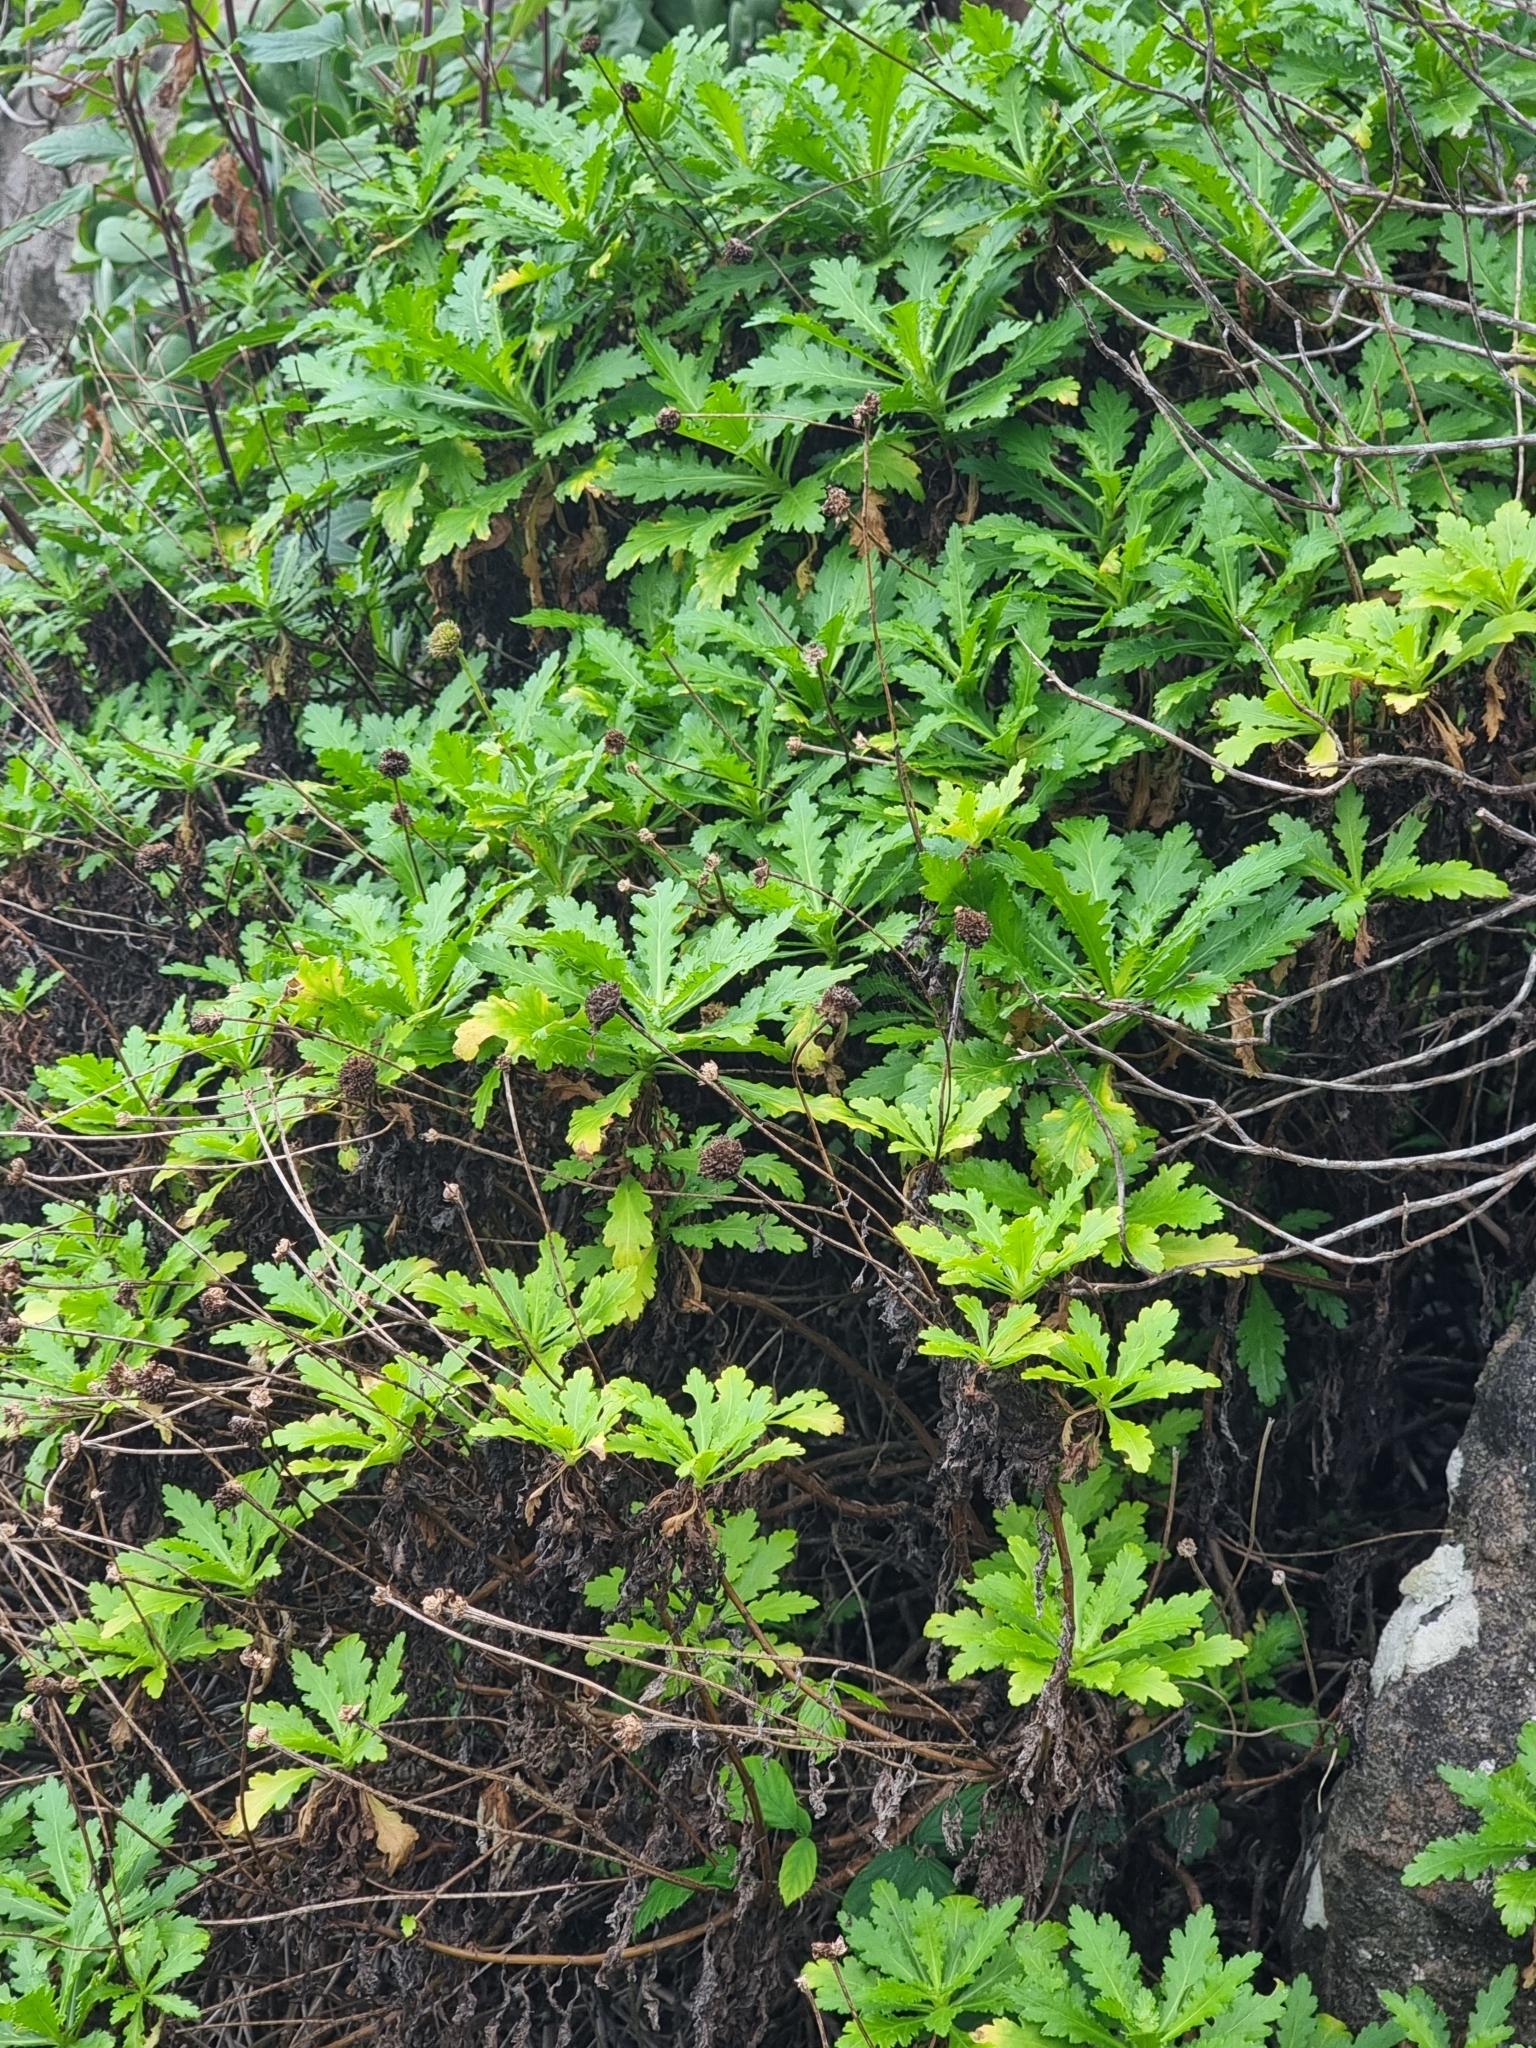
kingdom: Plantae
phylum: Tracheophyta
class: Magnoliopsida
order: Asterales
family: Asteraceae
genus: Argyranthemum
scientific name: Argyranthemum pinnatifidum
